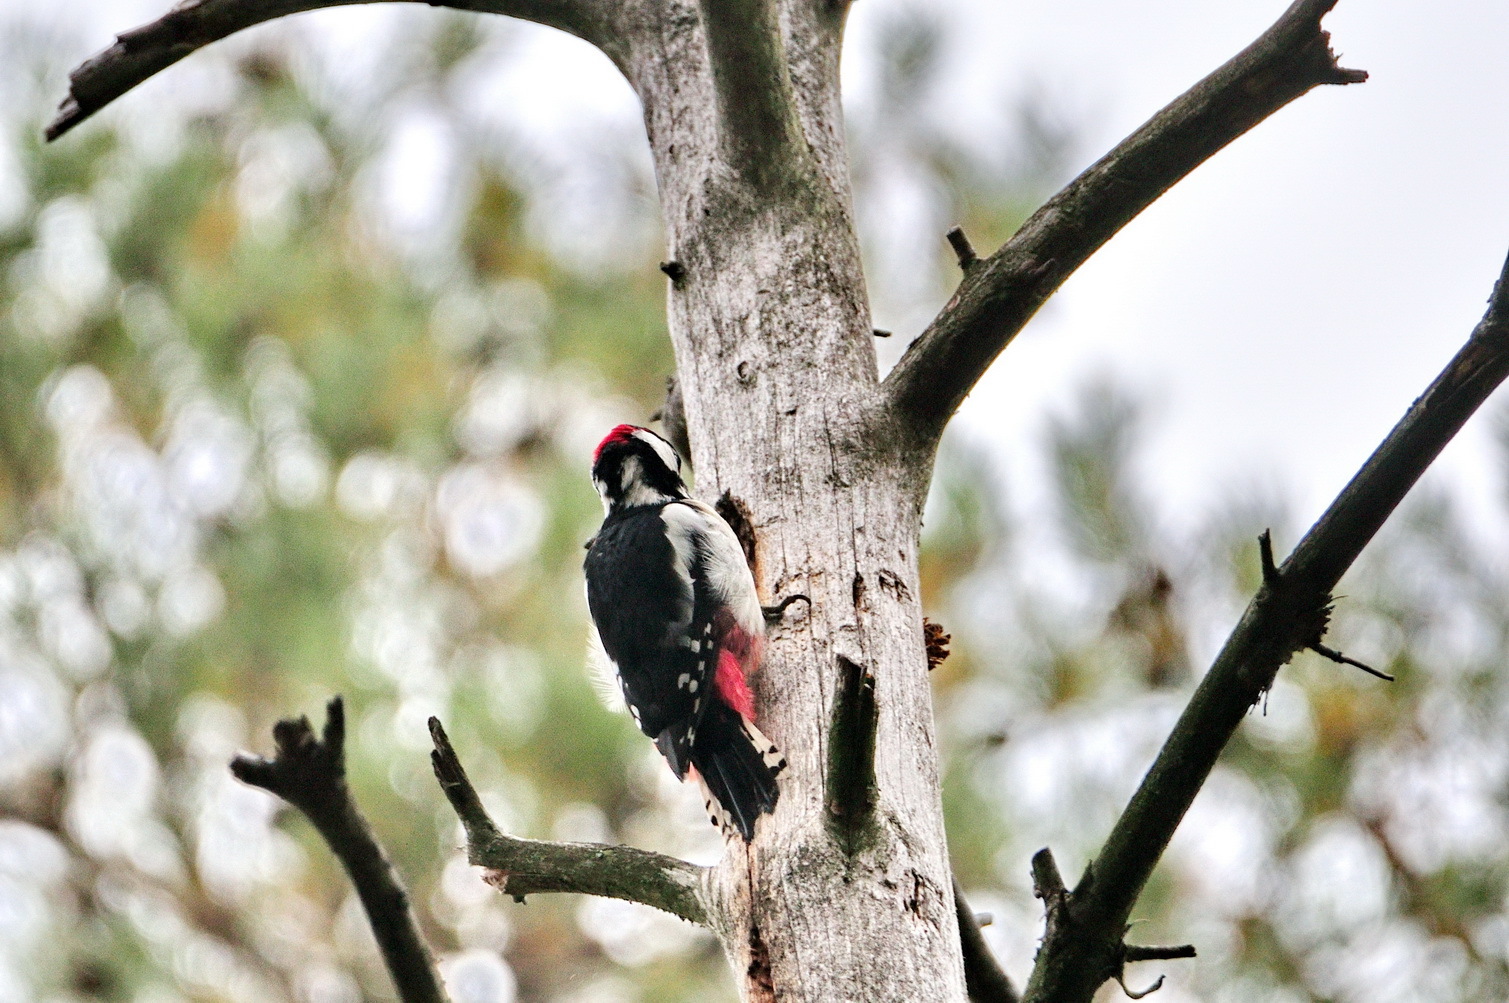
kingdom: Animalia
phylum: Chordata
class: Aves
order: Piciformes
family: Picidae
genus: Dendrocopos
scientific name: Dendrocopos major
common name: Great spotted woodpecker
